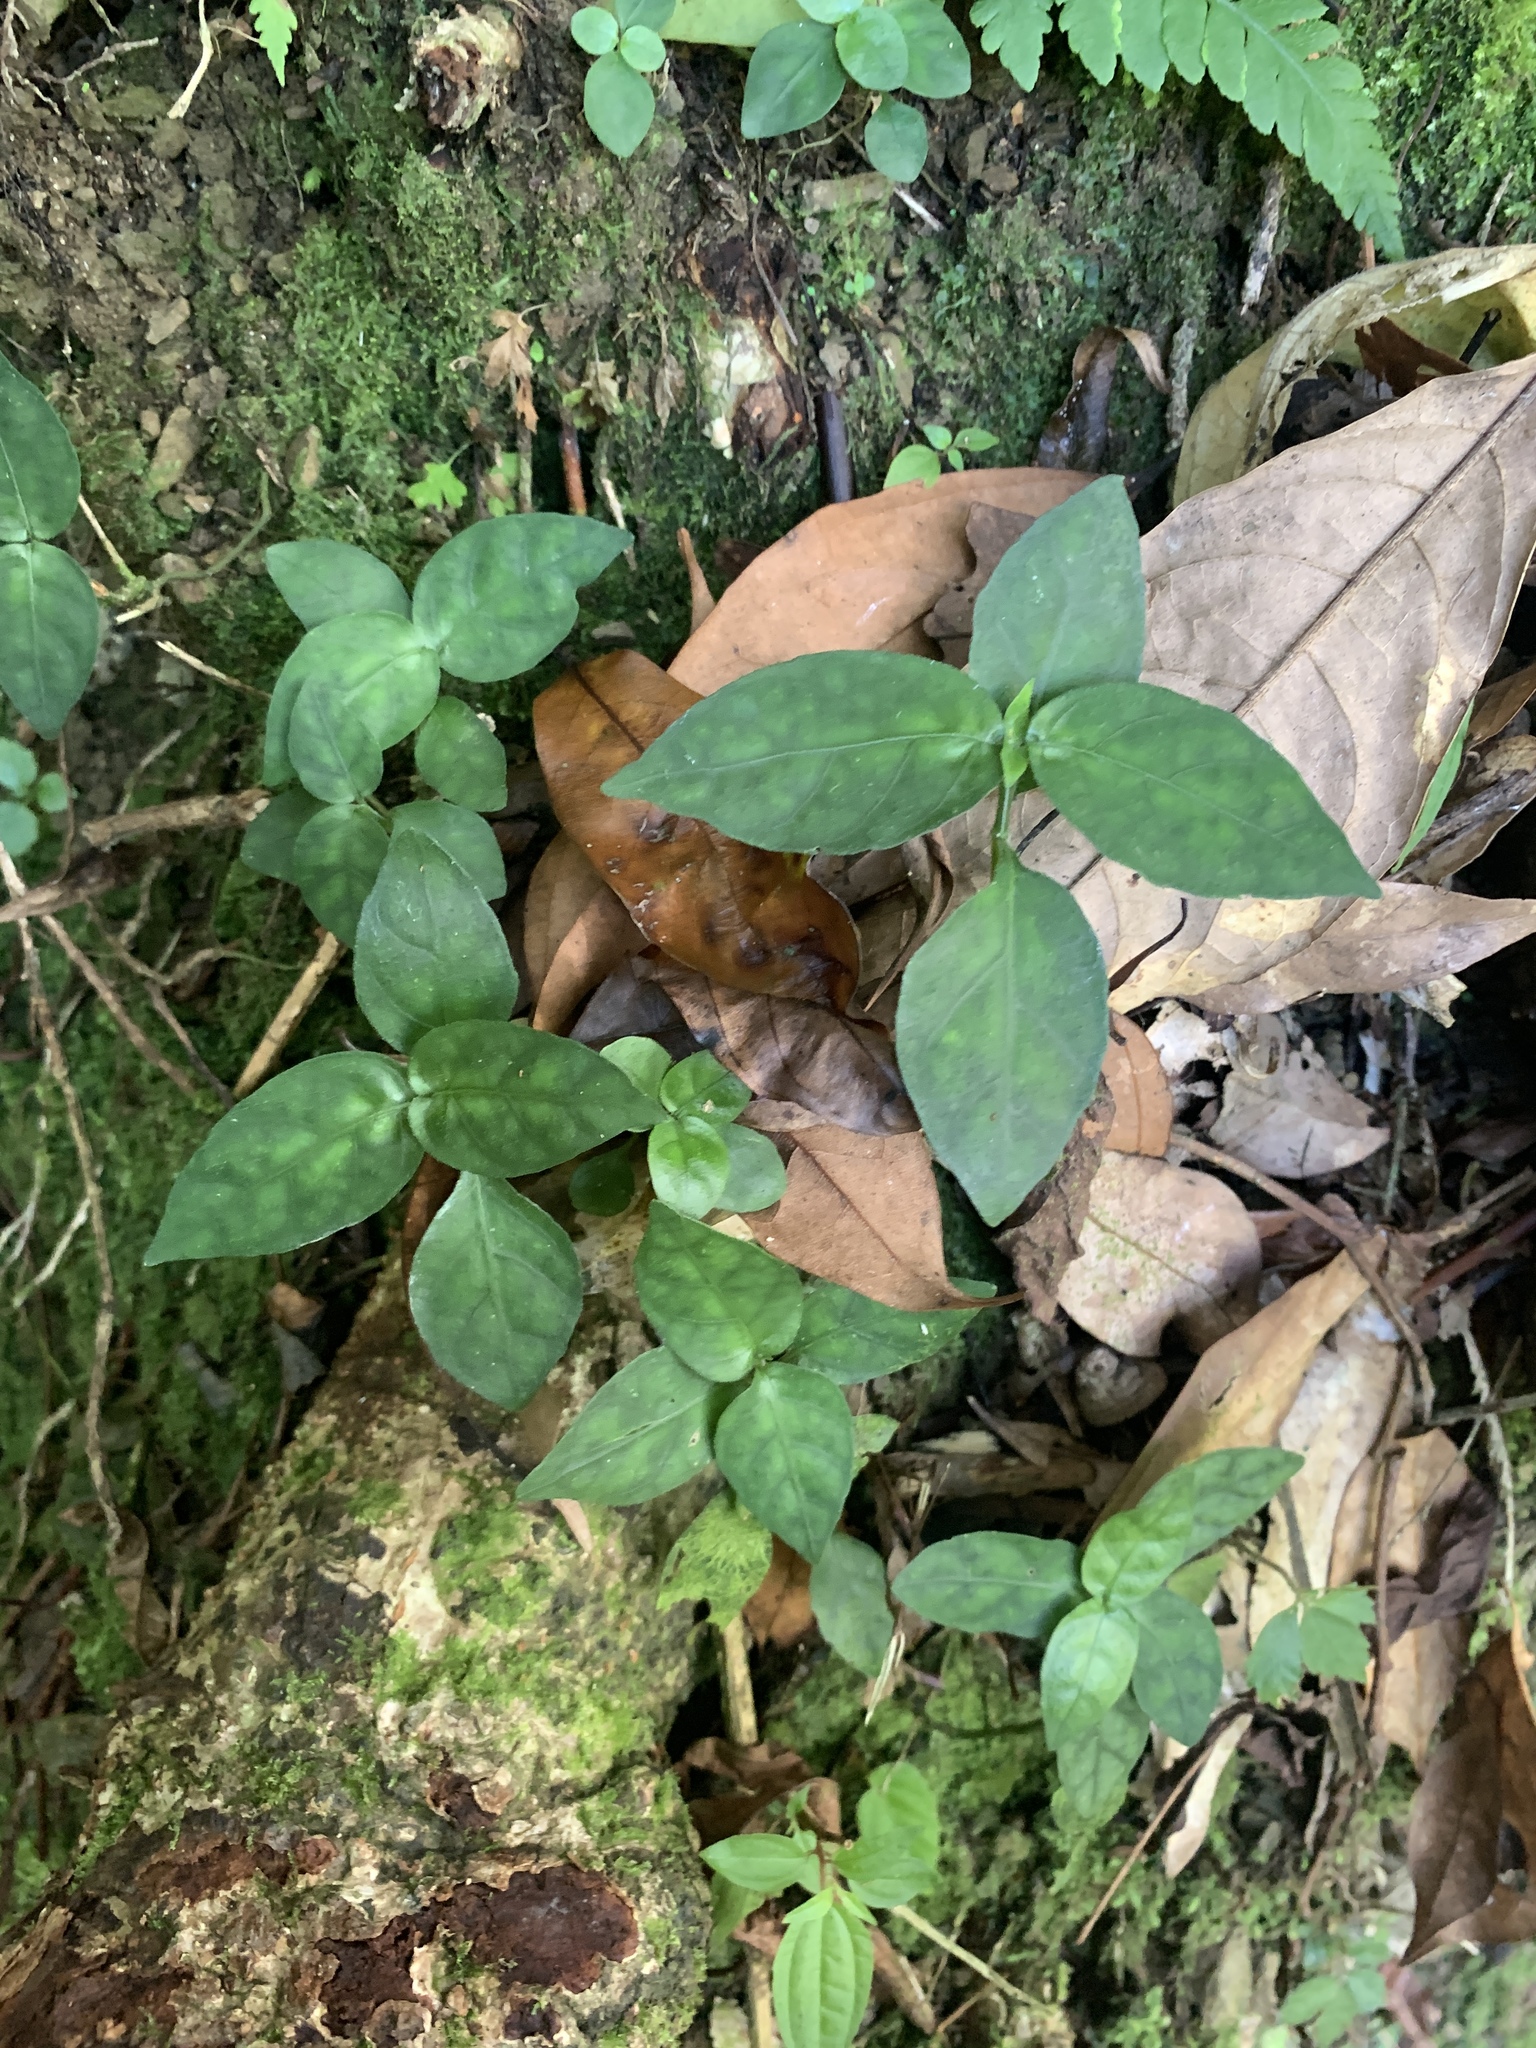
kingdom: Plantae
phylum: Tracheophyta
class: Magnoliopsida
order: Lamiales
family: Acanthaceae
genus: Codonacanthus
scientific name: Codonacanthus pauciflorus
